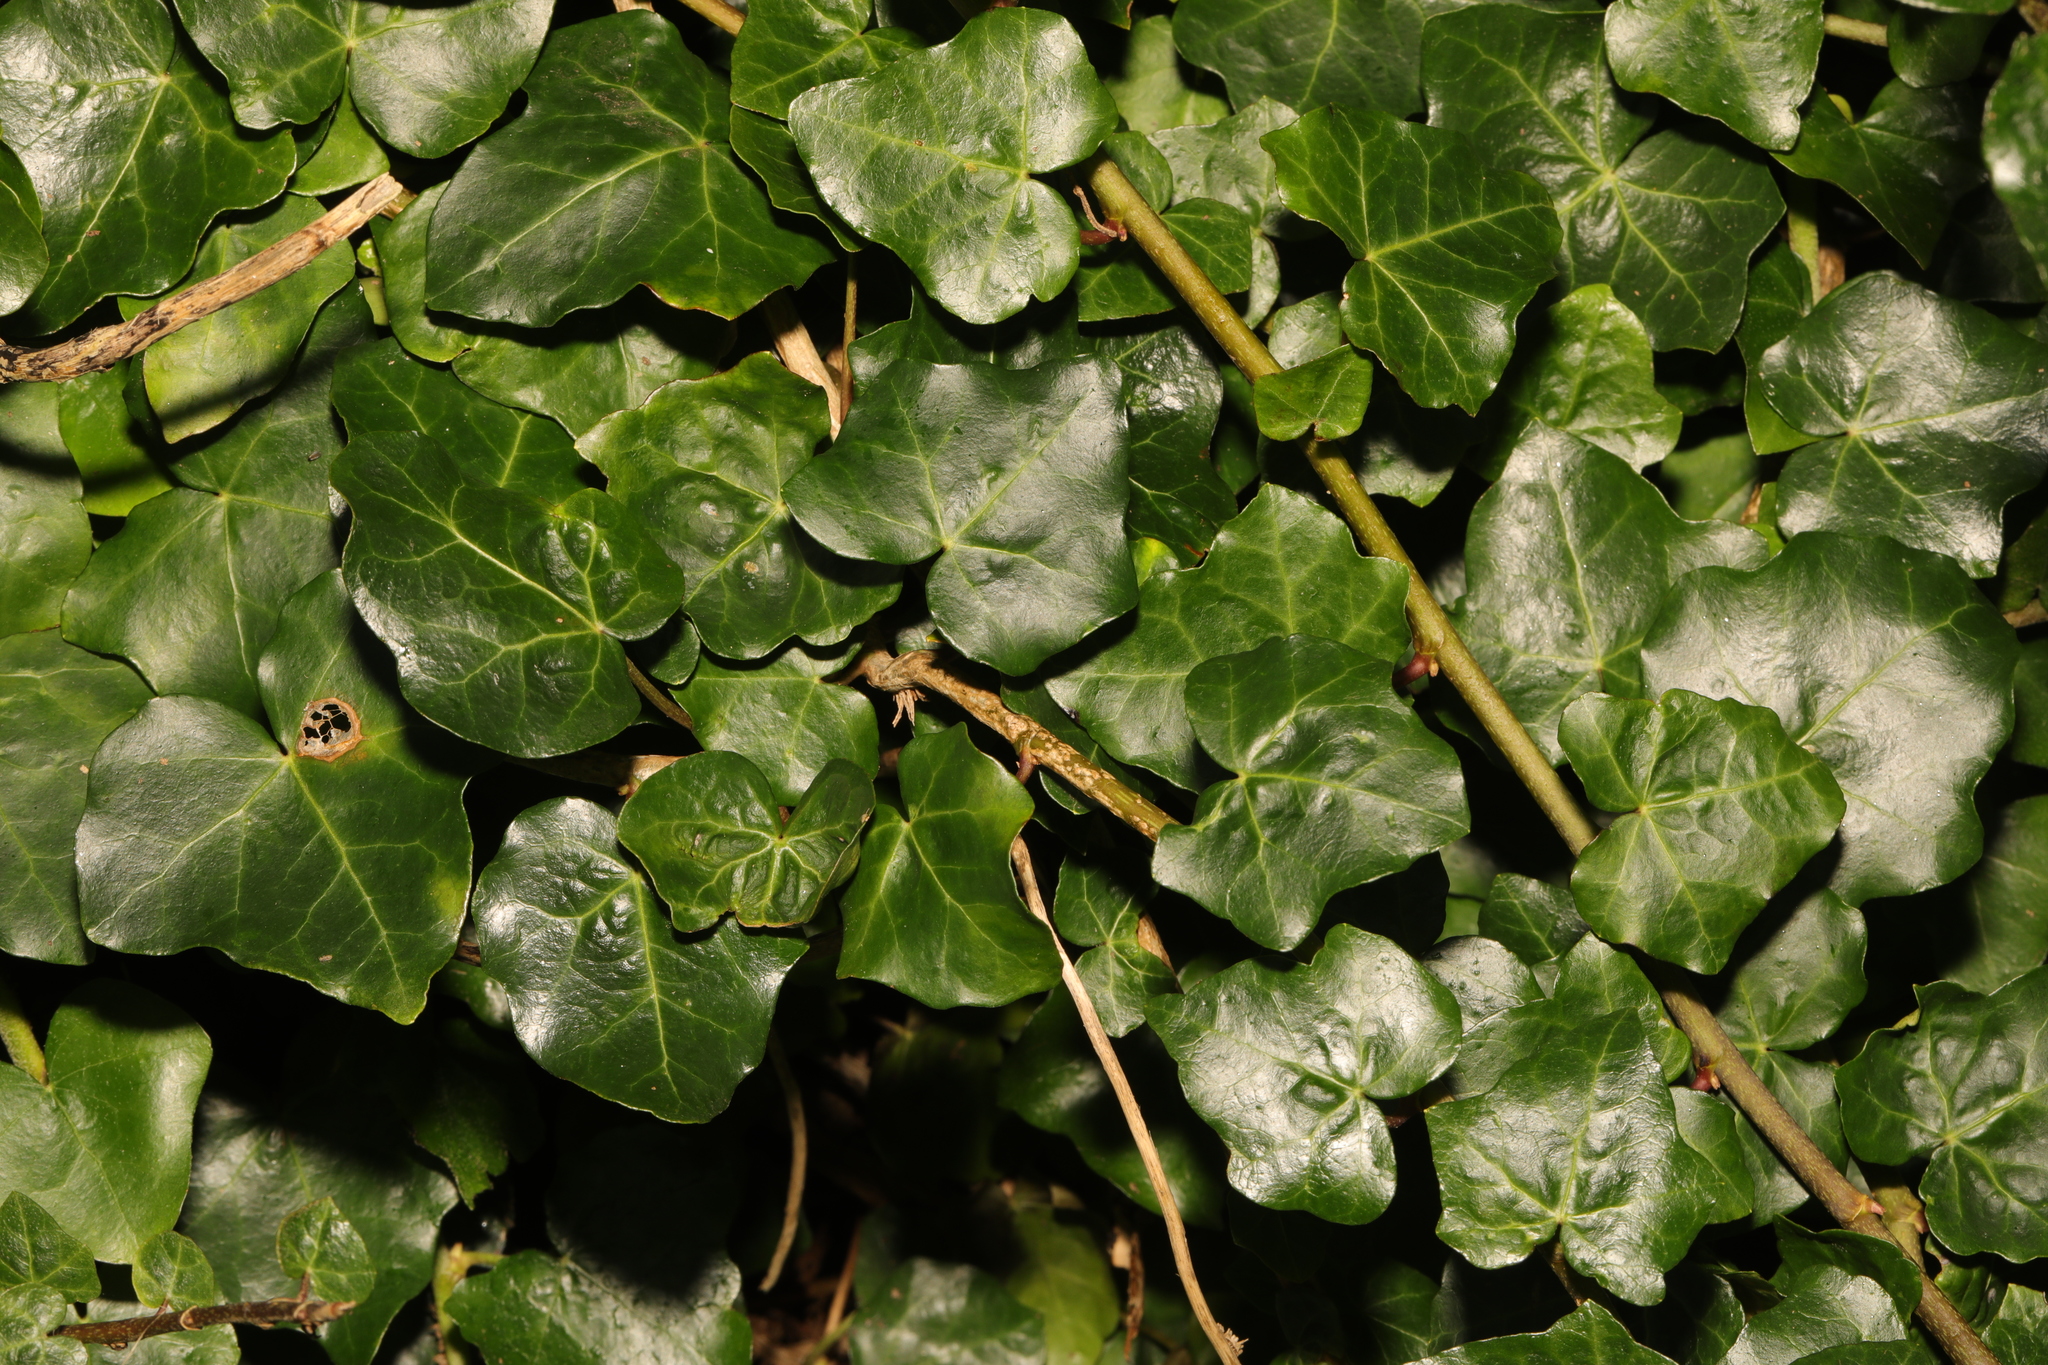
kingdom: Plantae
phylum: Tracheophyta
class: Magnoliopsida
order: Apiales
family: Araliaceae
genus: Hedera
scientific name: Hedera helix
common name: Ivy
